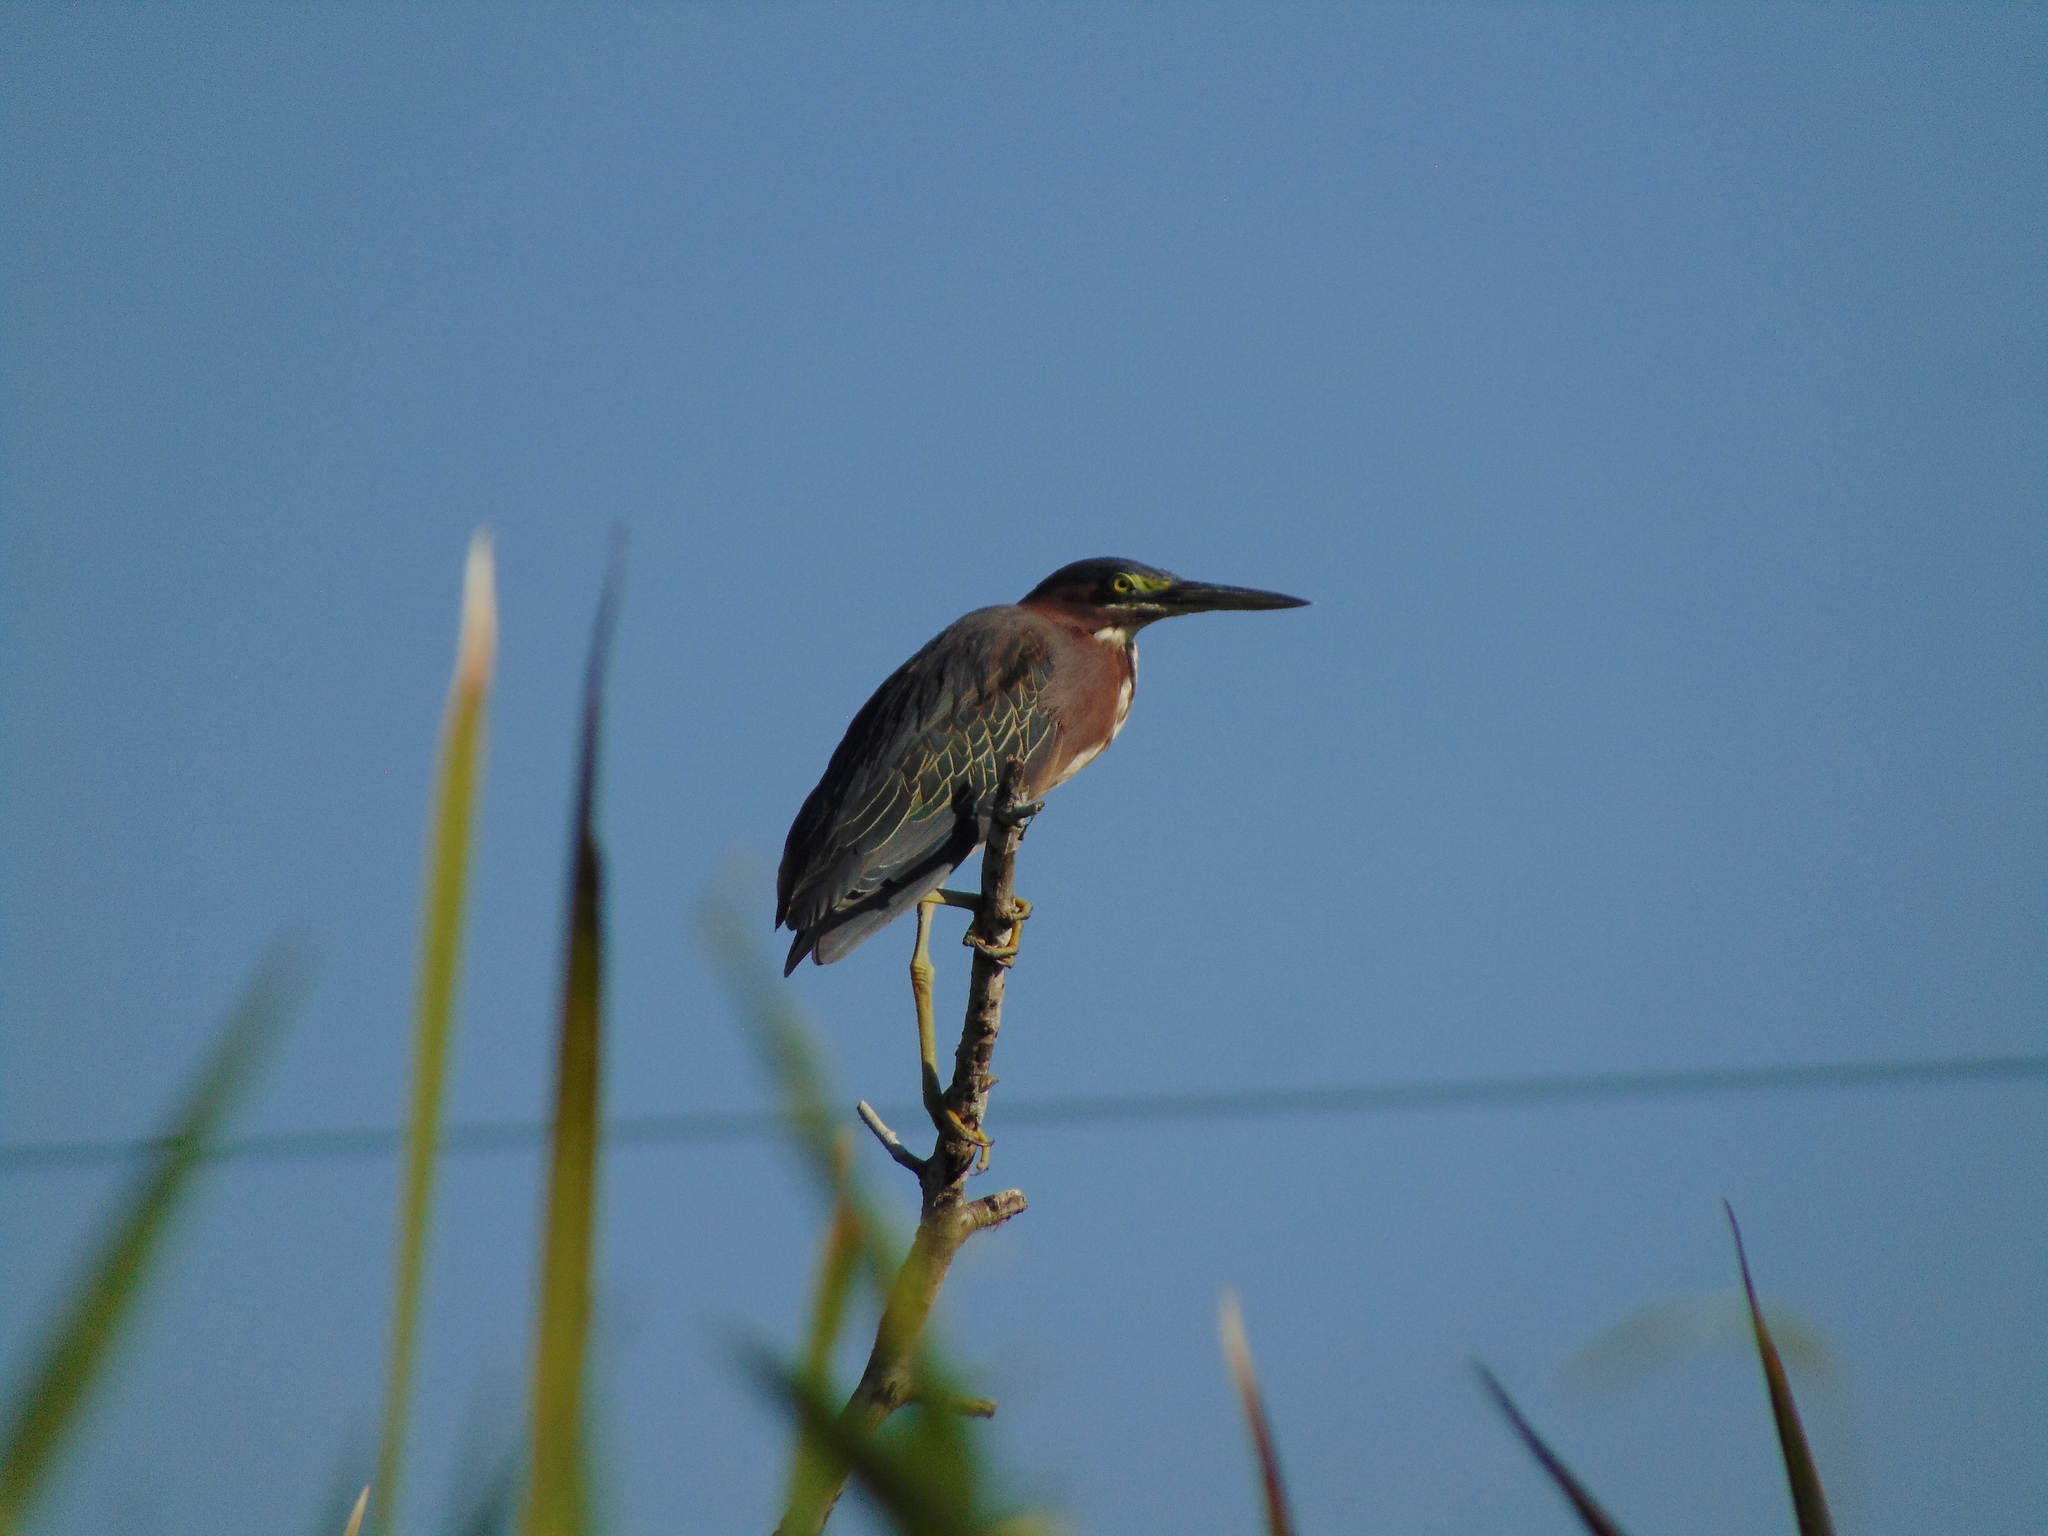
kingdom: Animalia
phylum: Chordata
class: Aves
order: Pelecaniformes
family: Ardeidae
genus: Butorides
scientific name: Butorides virescens
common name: Green heron
